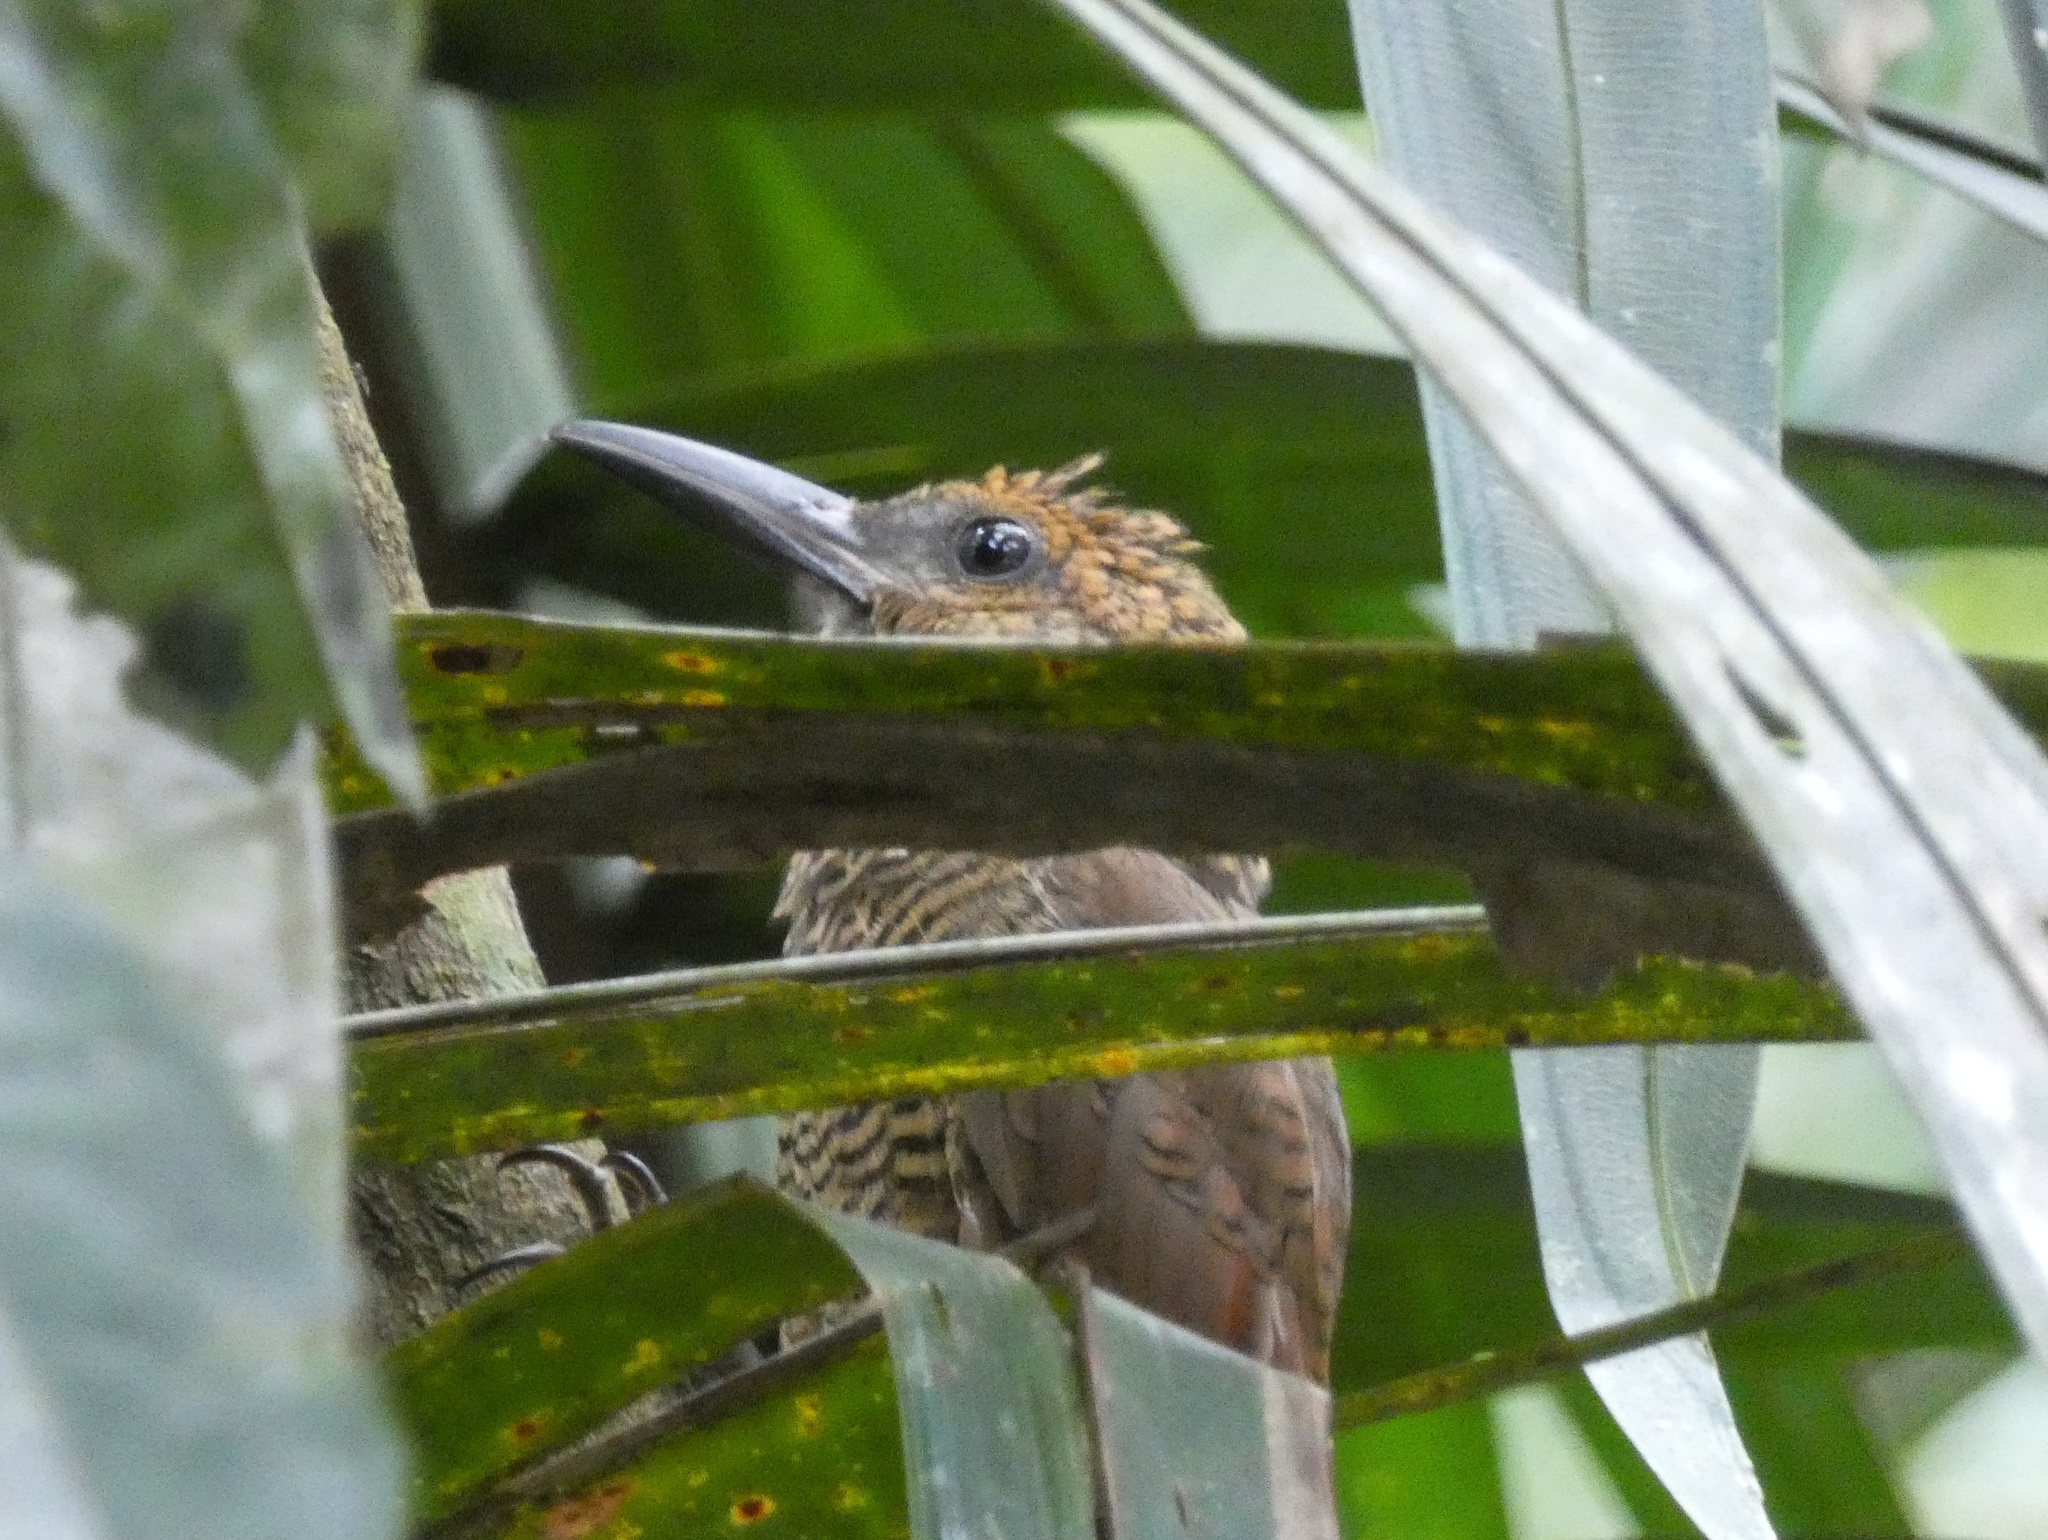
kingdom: Animalia
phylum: Chordata
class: Aves
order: Passeriformes
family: Furnariidae
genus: Dendrocolaptes
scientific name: Dendrocolaptes sanctithomae
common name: Northern barred-woodcreeper
